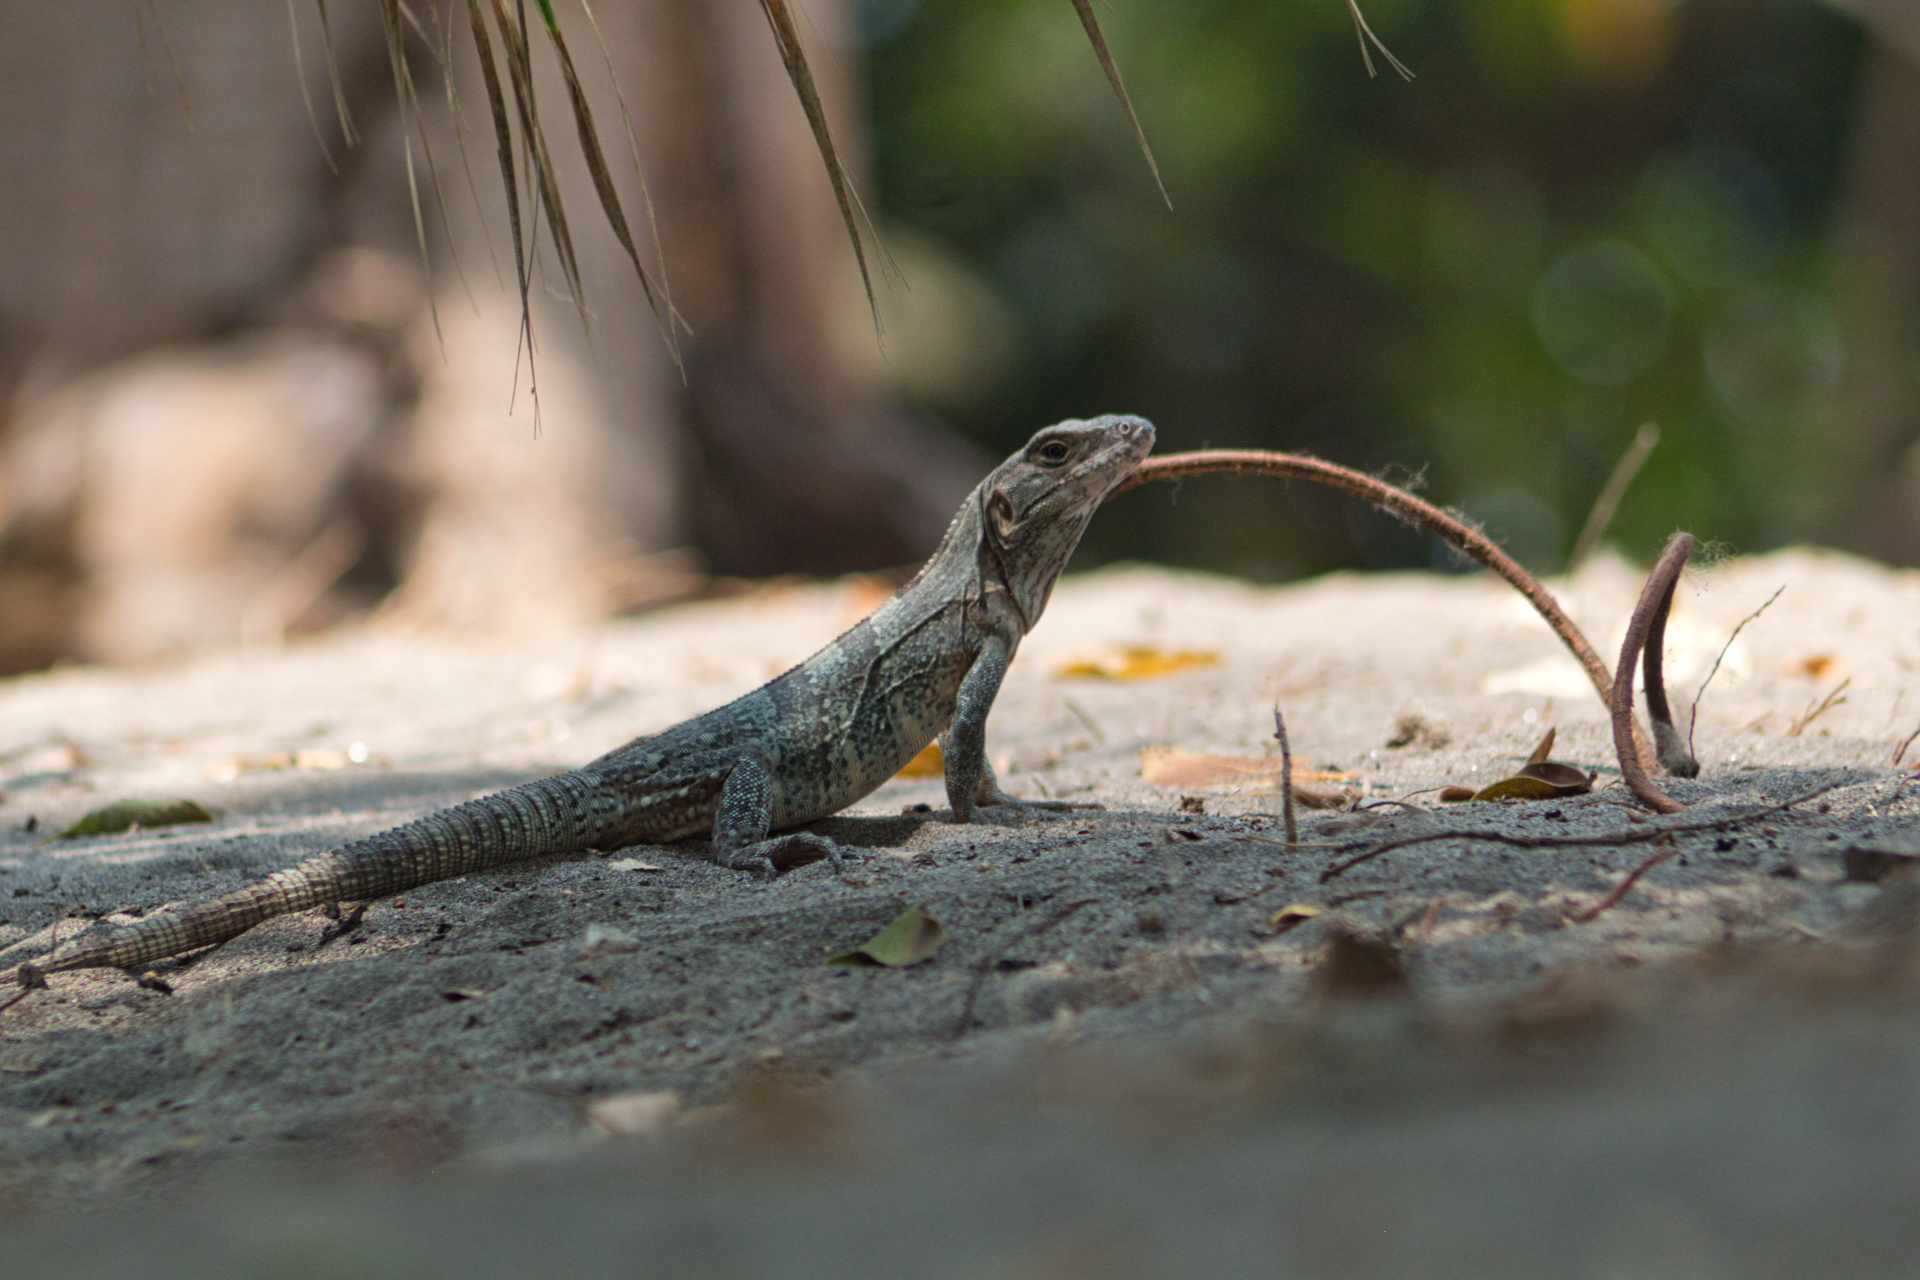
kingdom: Animalia
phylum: Chordata
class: Squamata
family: Iguanidae
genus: Ctenosaura
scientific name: Ctenosaura similis
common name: Black spiny-tailed iguana
